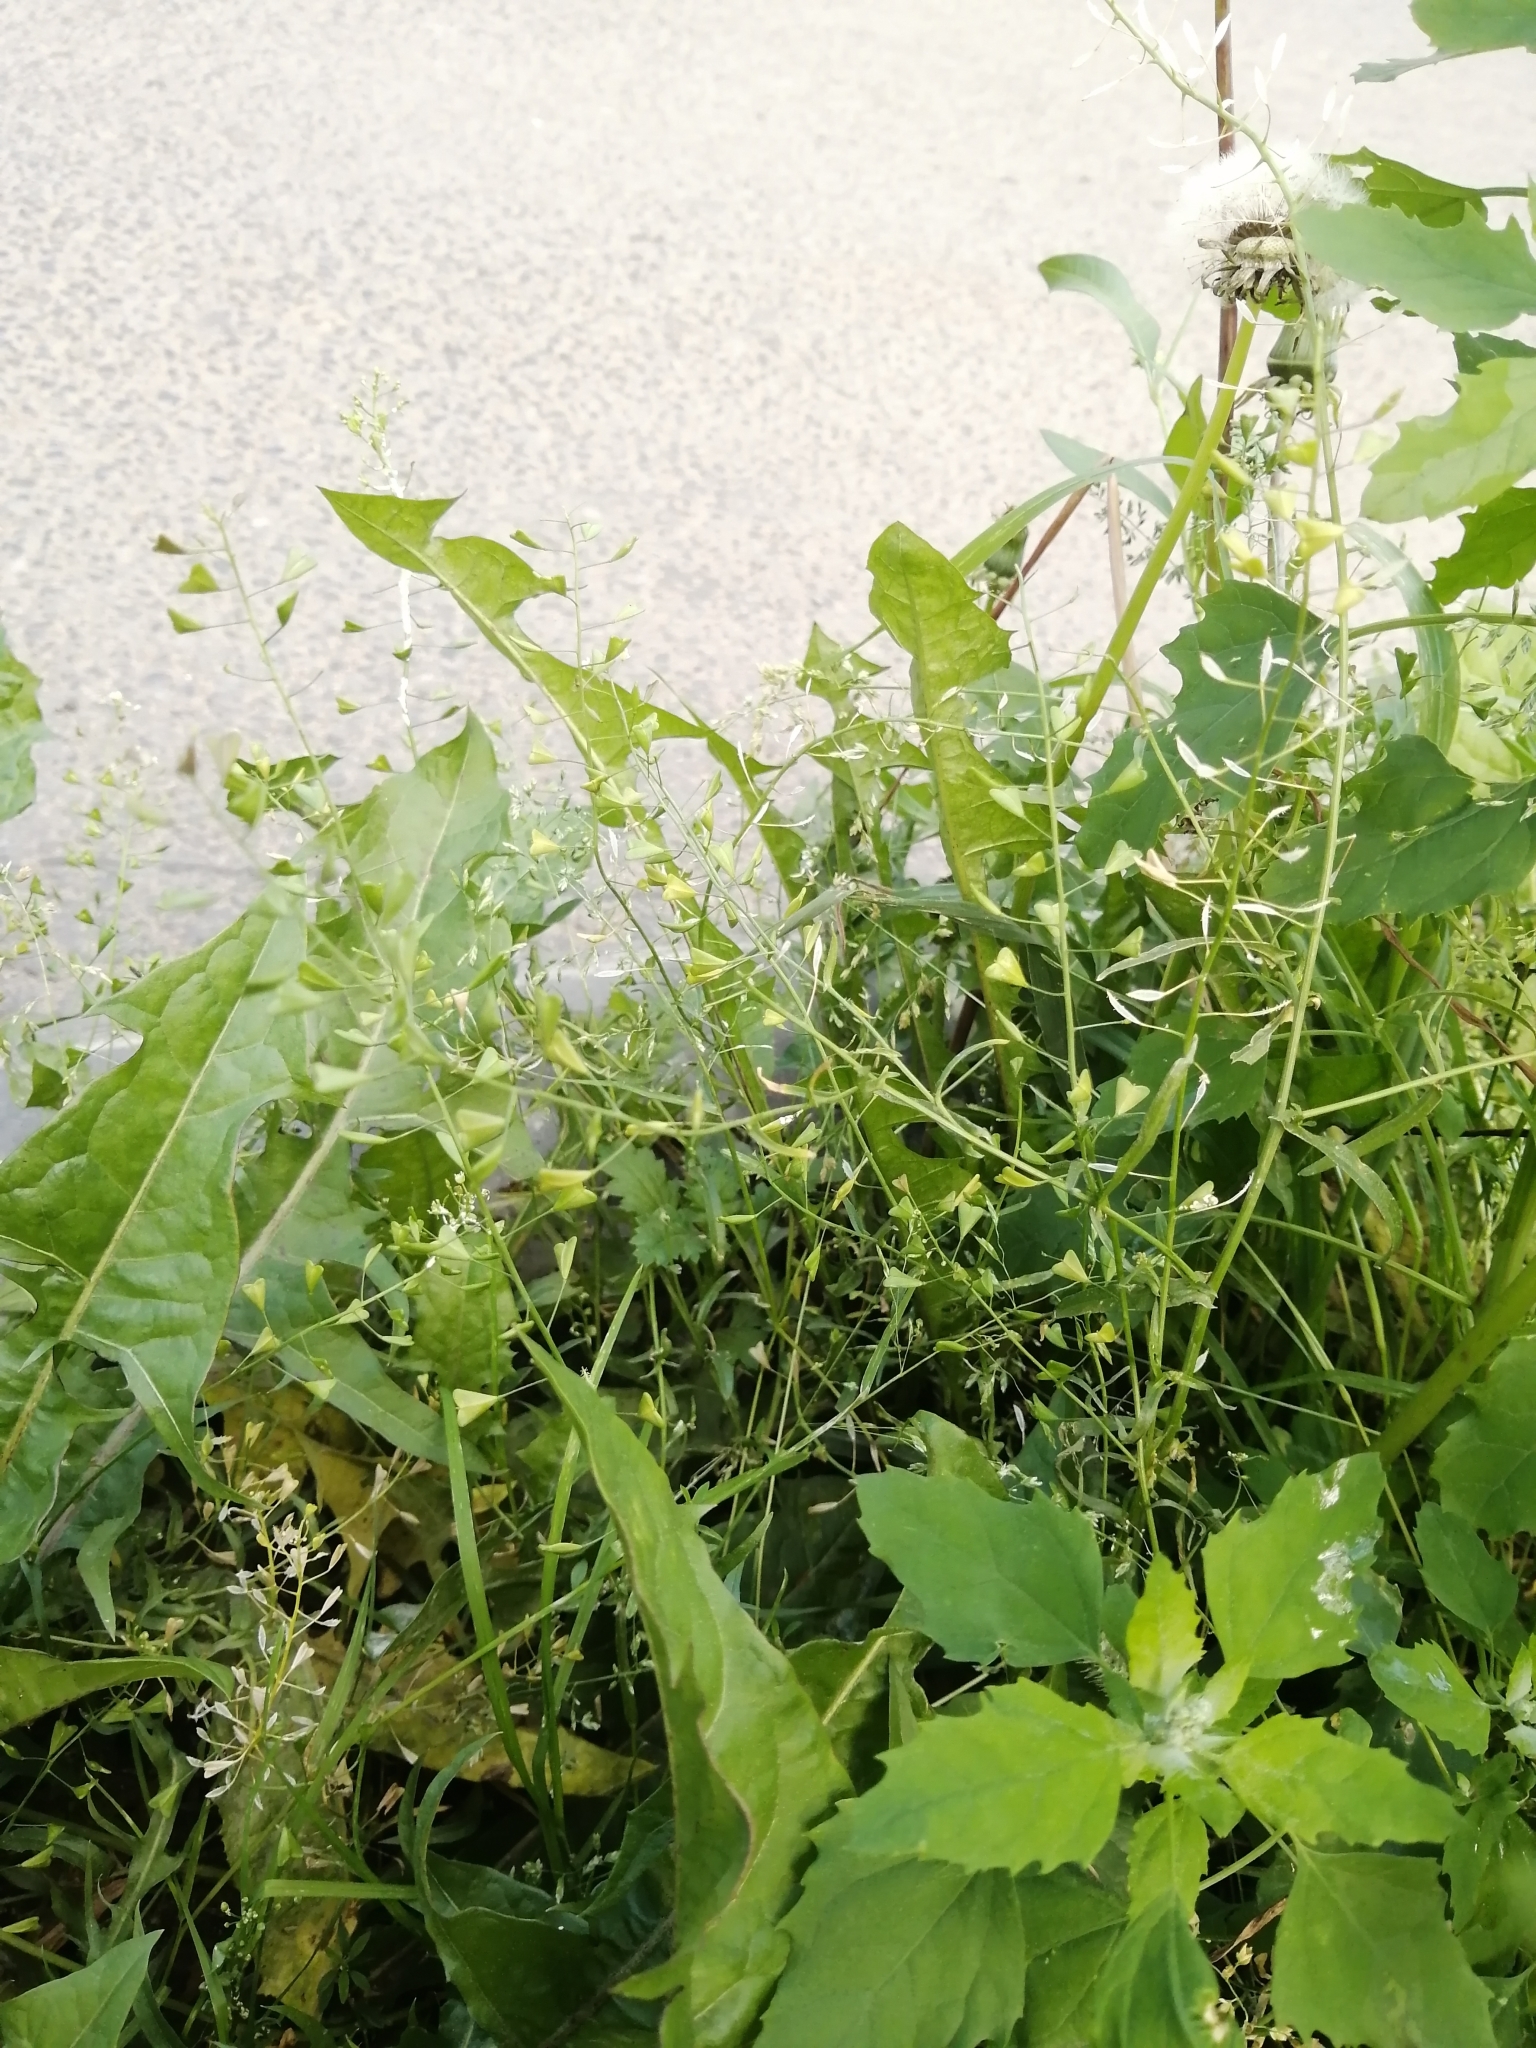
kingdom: Plantae
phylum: Tracheophyta
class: Magnoliopsida
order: Brassicales
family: Brassicaceae
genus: Capsella
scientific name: Capsella bursa-pastoris
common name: Shepherd's purse
